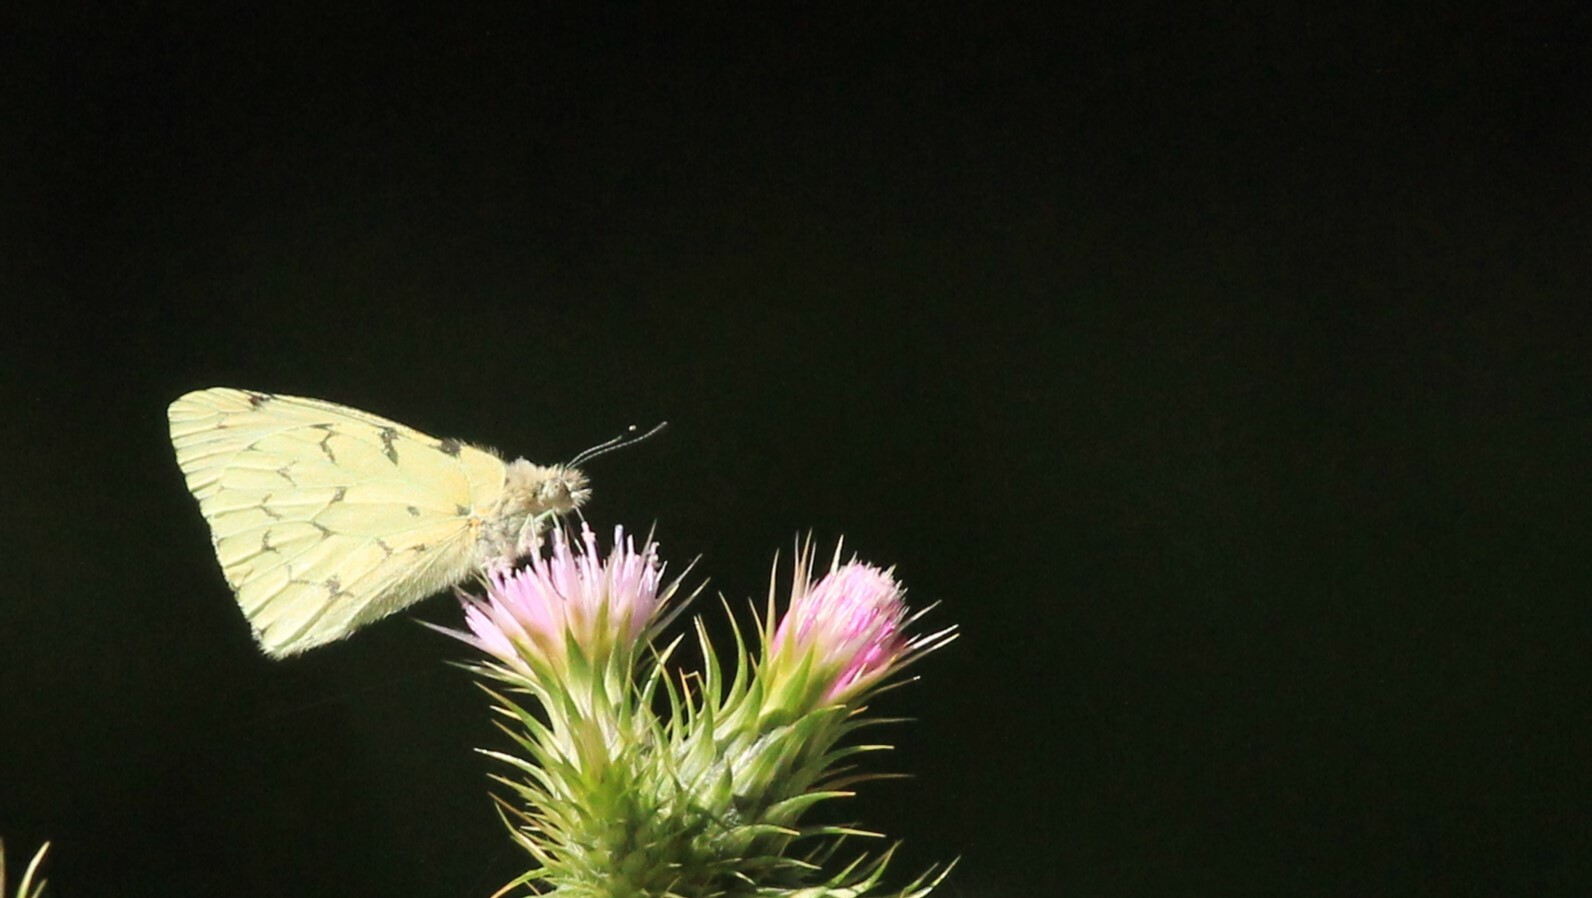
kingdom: Animalia
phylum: Arthropoda
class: Insecta
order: Lepidoptera
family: Pieridae
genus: Hesperocharis
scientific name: Hesperocharis paranensis
